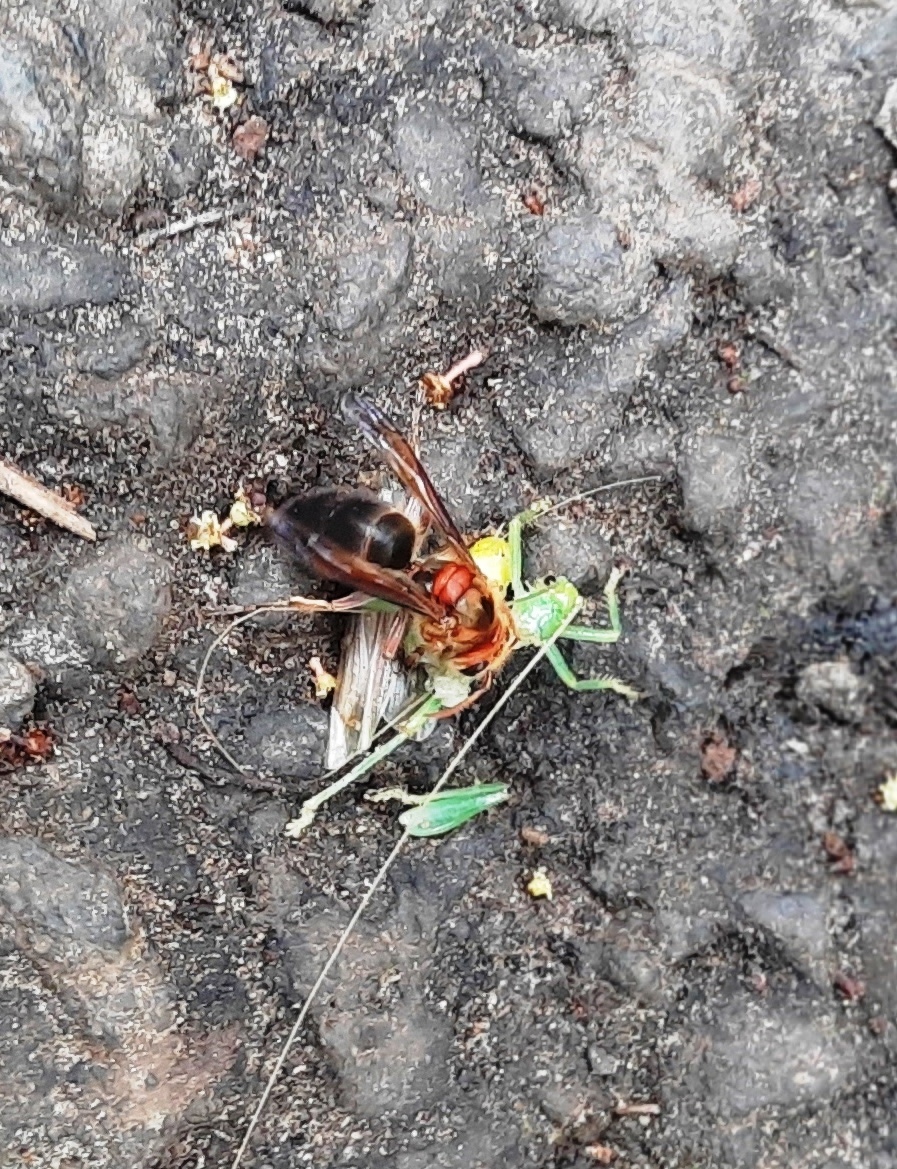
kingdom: Animalia
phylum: Arthropoda
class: Insecta
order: Hymenoptera
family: Vespidae
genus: Vespa
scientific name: Vespa basalis
